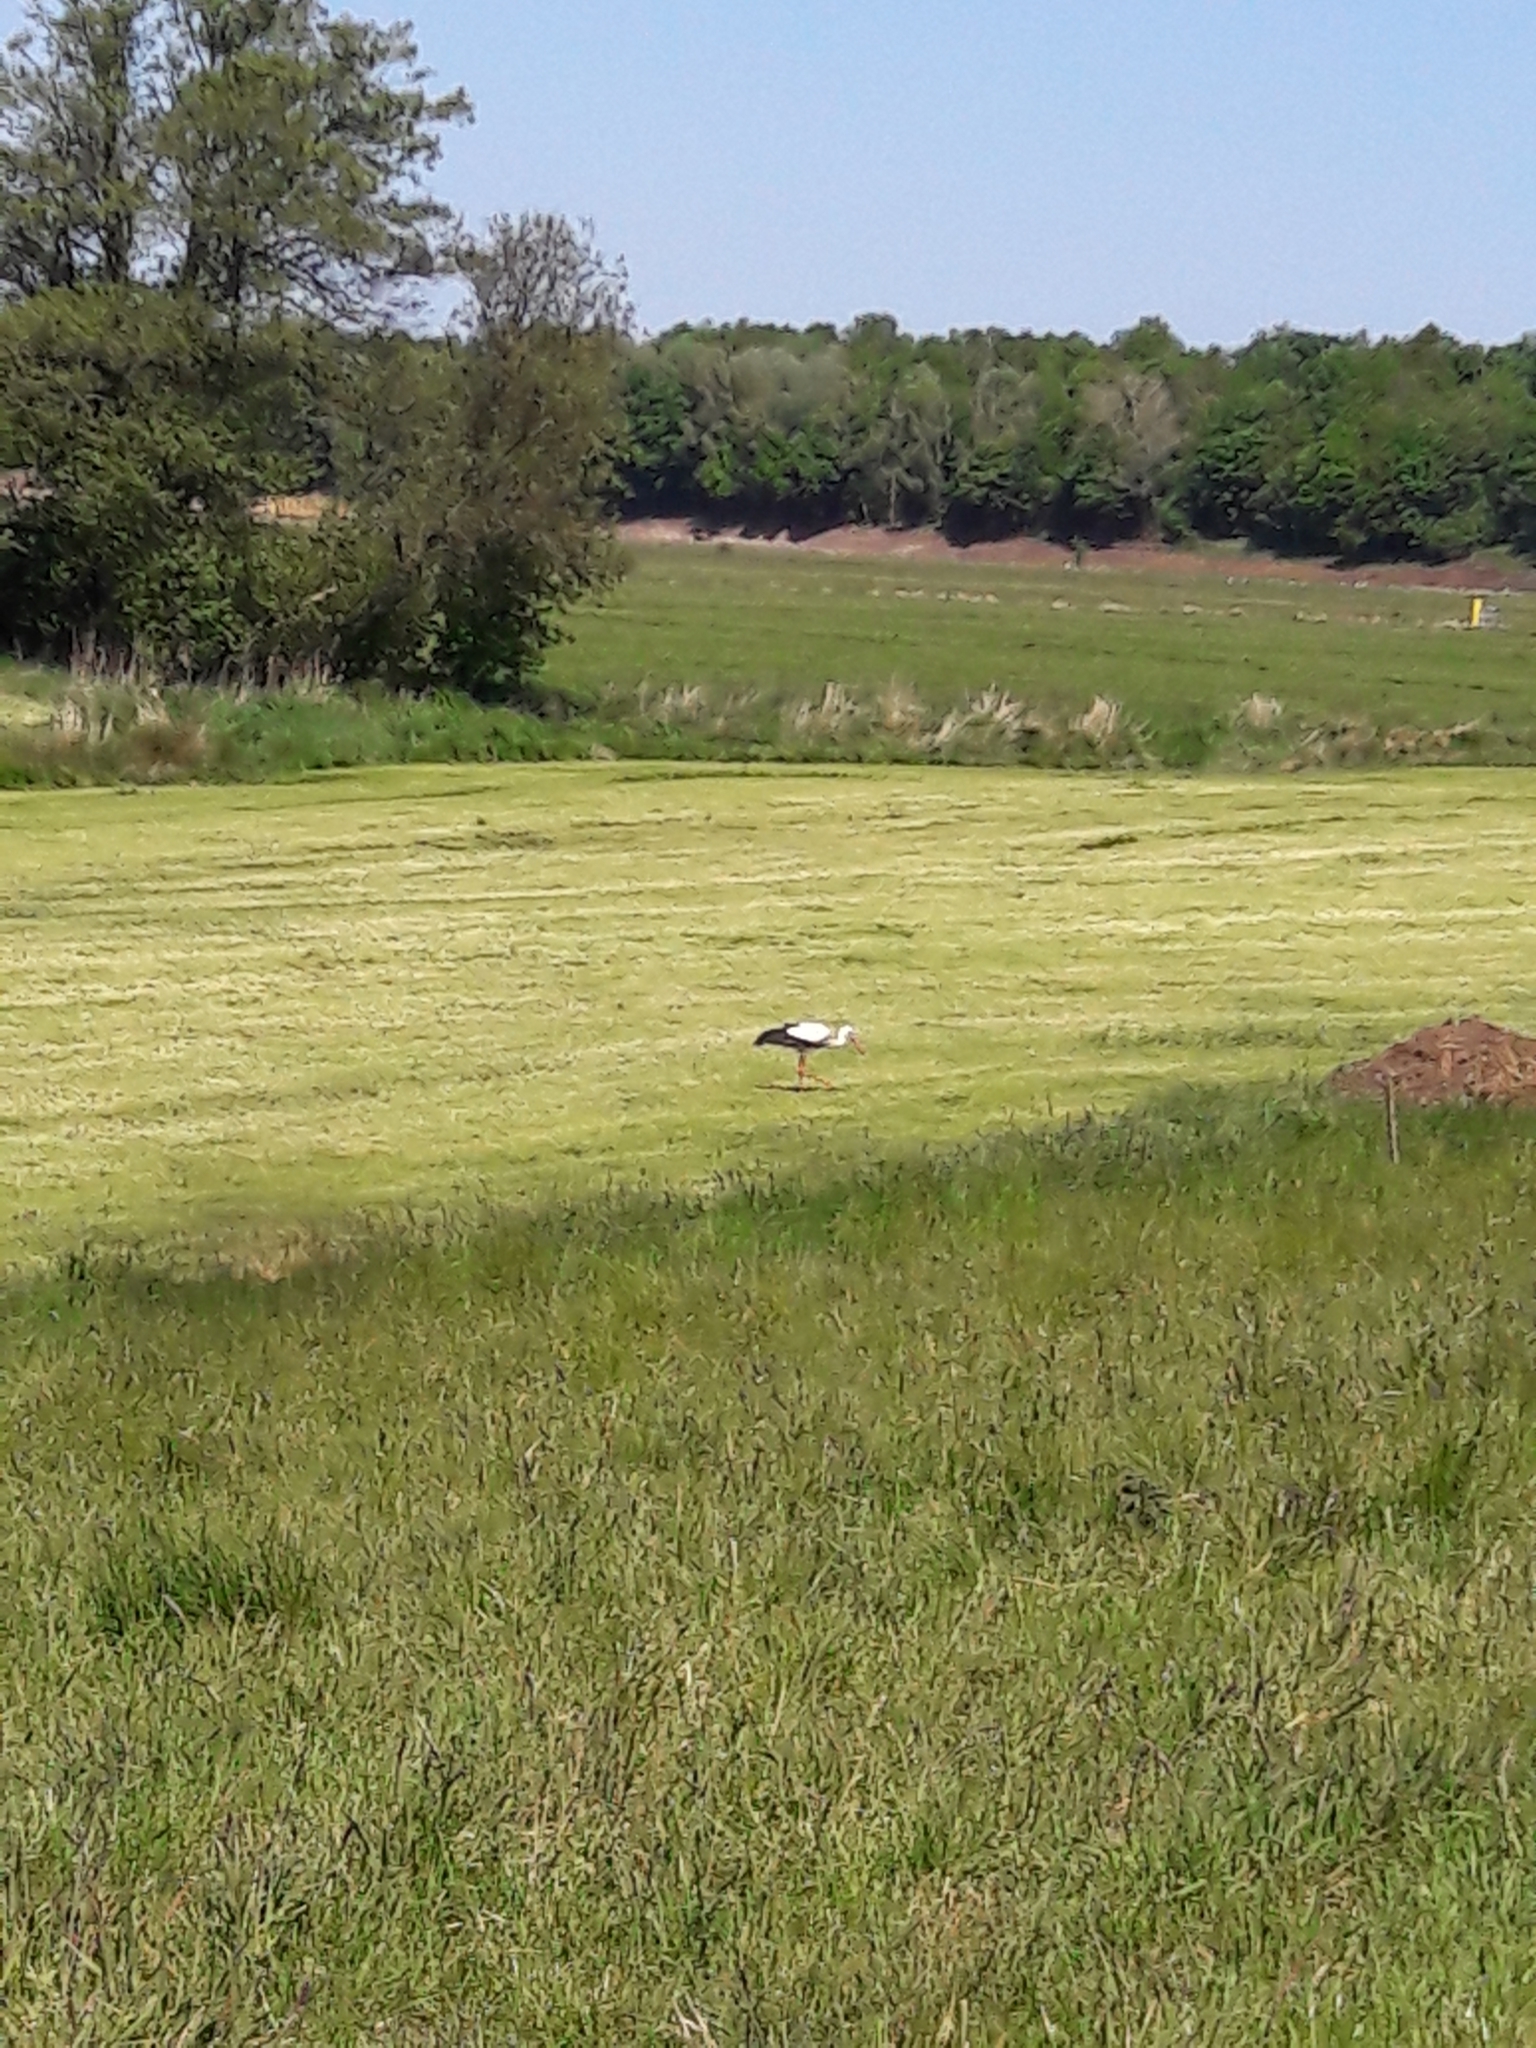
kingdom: Animalia
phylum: Chordata
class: Aves
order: Ciconiiformes
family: Ciconiidae
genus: Ciconia
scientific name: Ciconia ciconia
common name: White stork
